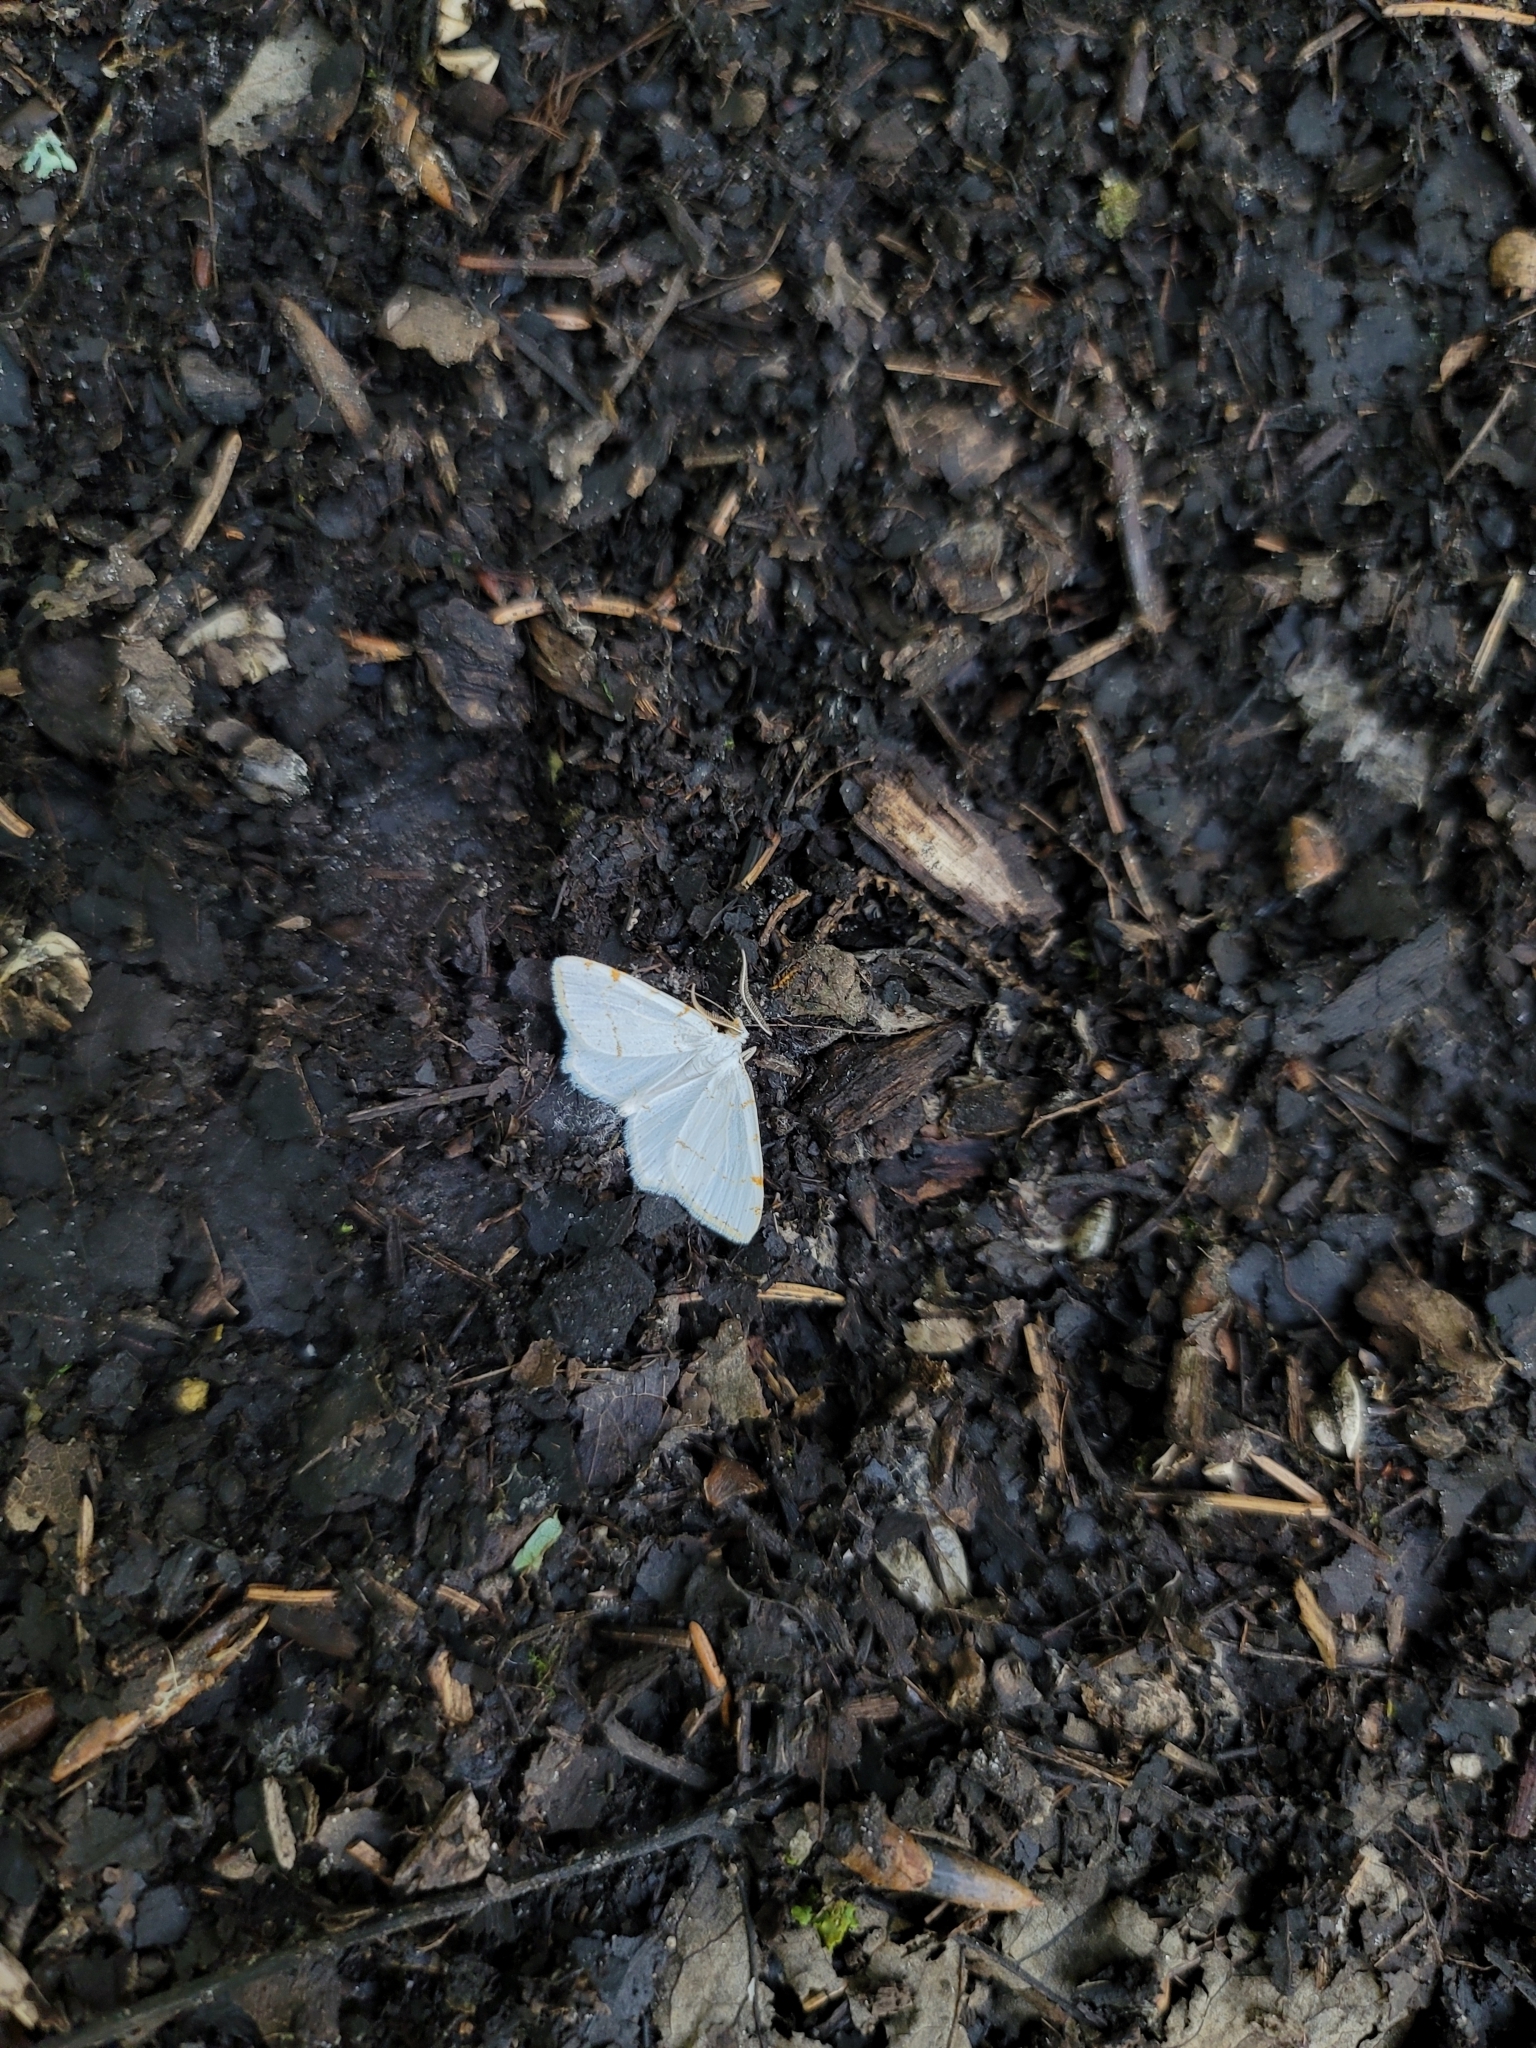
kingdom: Animalia
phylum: Arthropoda
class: Insecta
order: Lepidoptera
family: Geometridae
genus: Macaria
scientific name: Macaria pustularia
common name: Lesser maple spanworm moth
